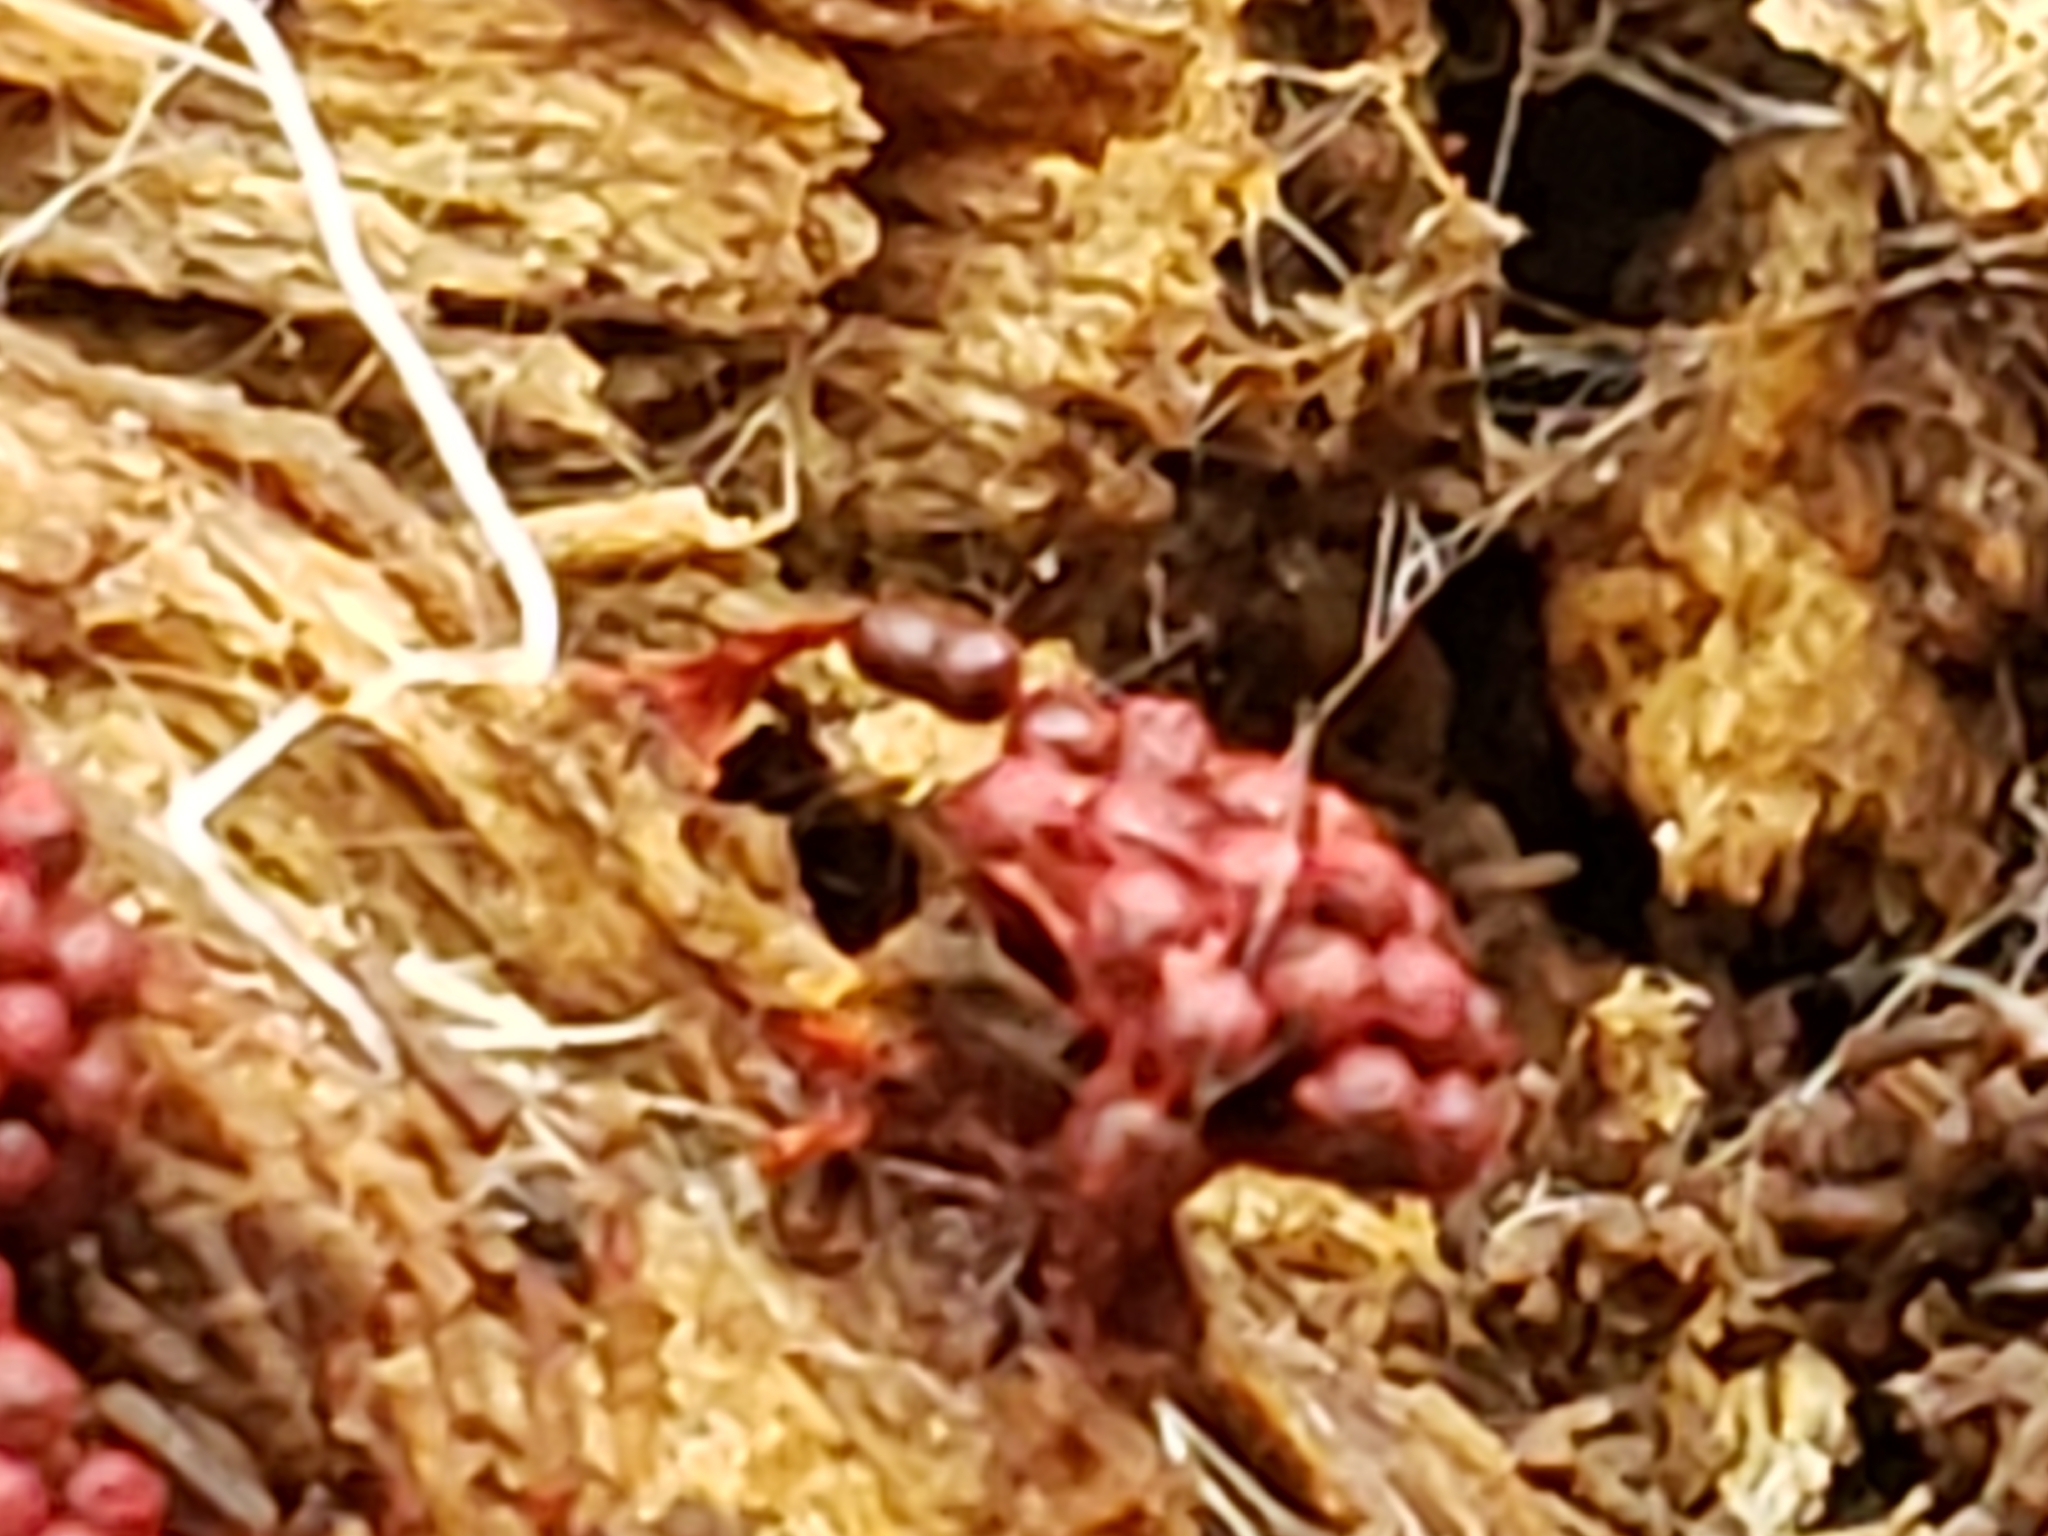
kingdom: Protozoa
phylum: Mycetozoa
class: Myxomycetes
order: Trichiales
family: Trichiaceae
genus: Metatrichia
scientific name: Metatrichia vesparia
